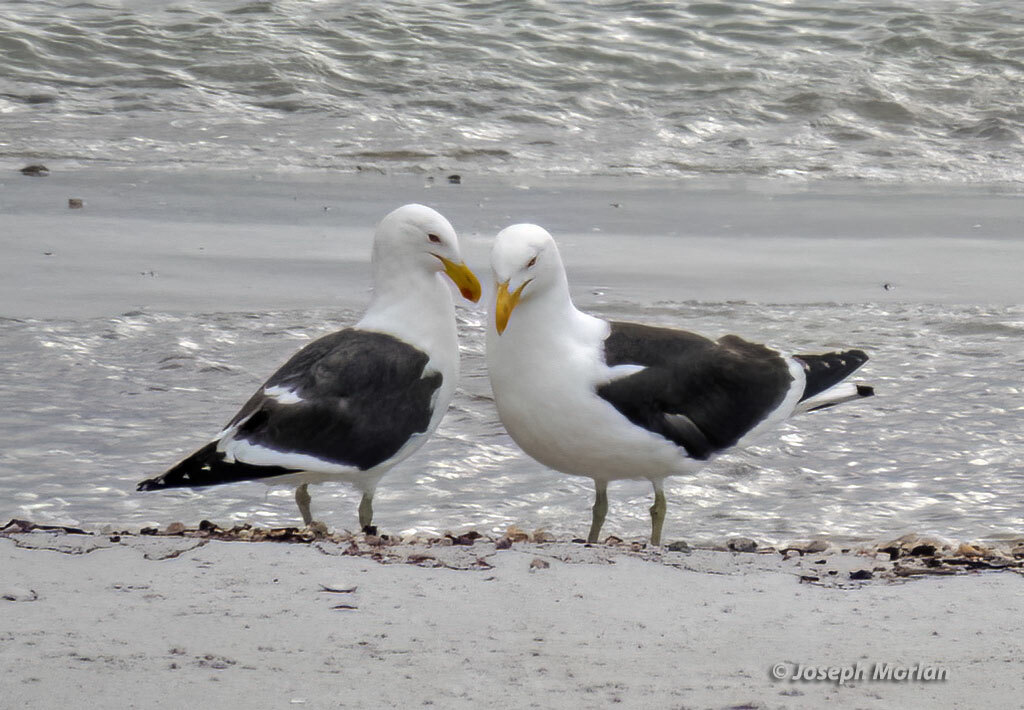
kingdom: Animalia
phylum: Chordata
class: Aves
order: Charadriiformes
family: Laridae
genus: Larus
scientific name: Larus dominicanus
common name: Kelp gull
